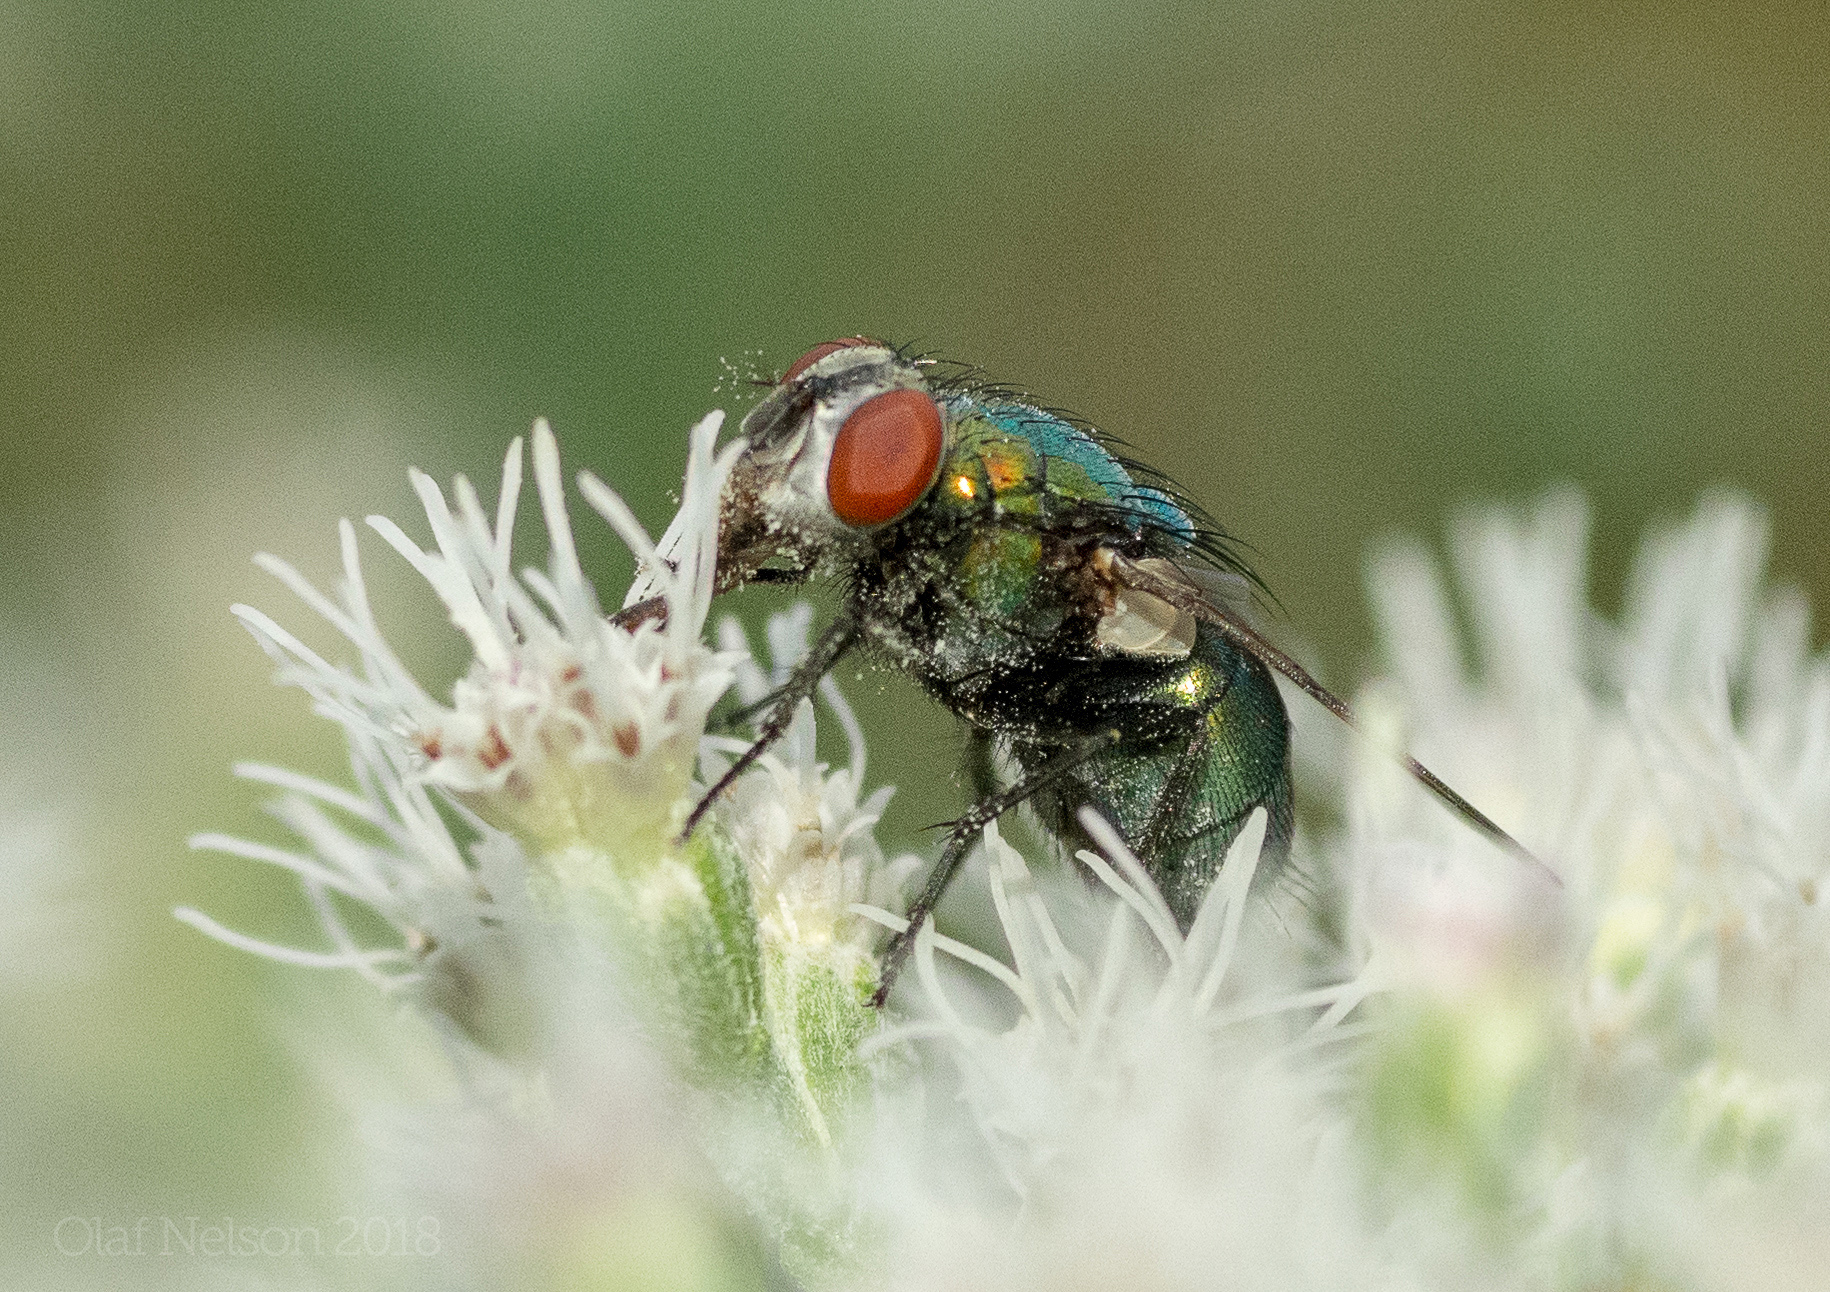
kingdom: Animalia
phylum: Arthropoda
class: Insecta
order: Diptera
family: Calliphoridae
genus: Lucilia
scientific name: Lucilia sericata
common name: Blow fly
